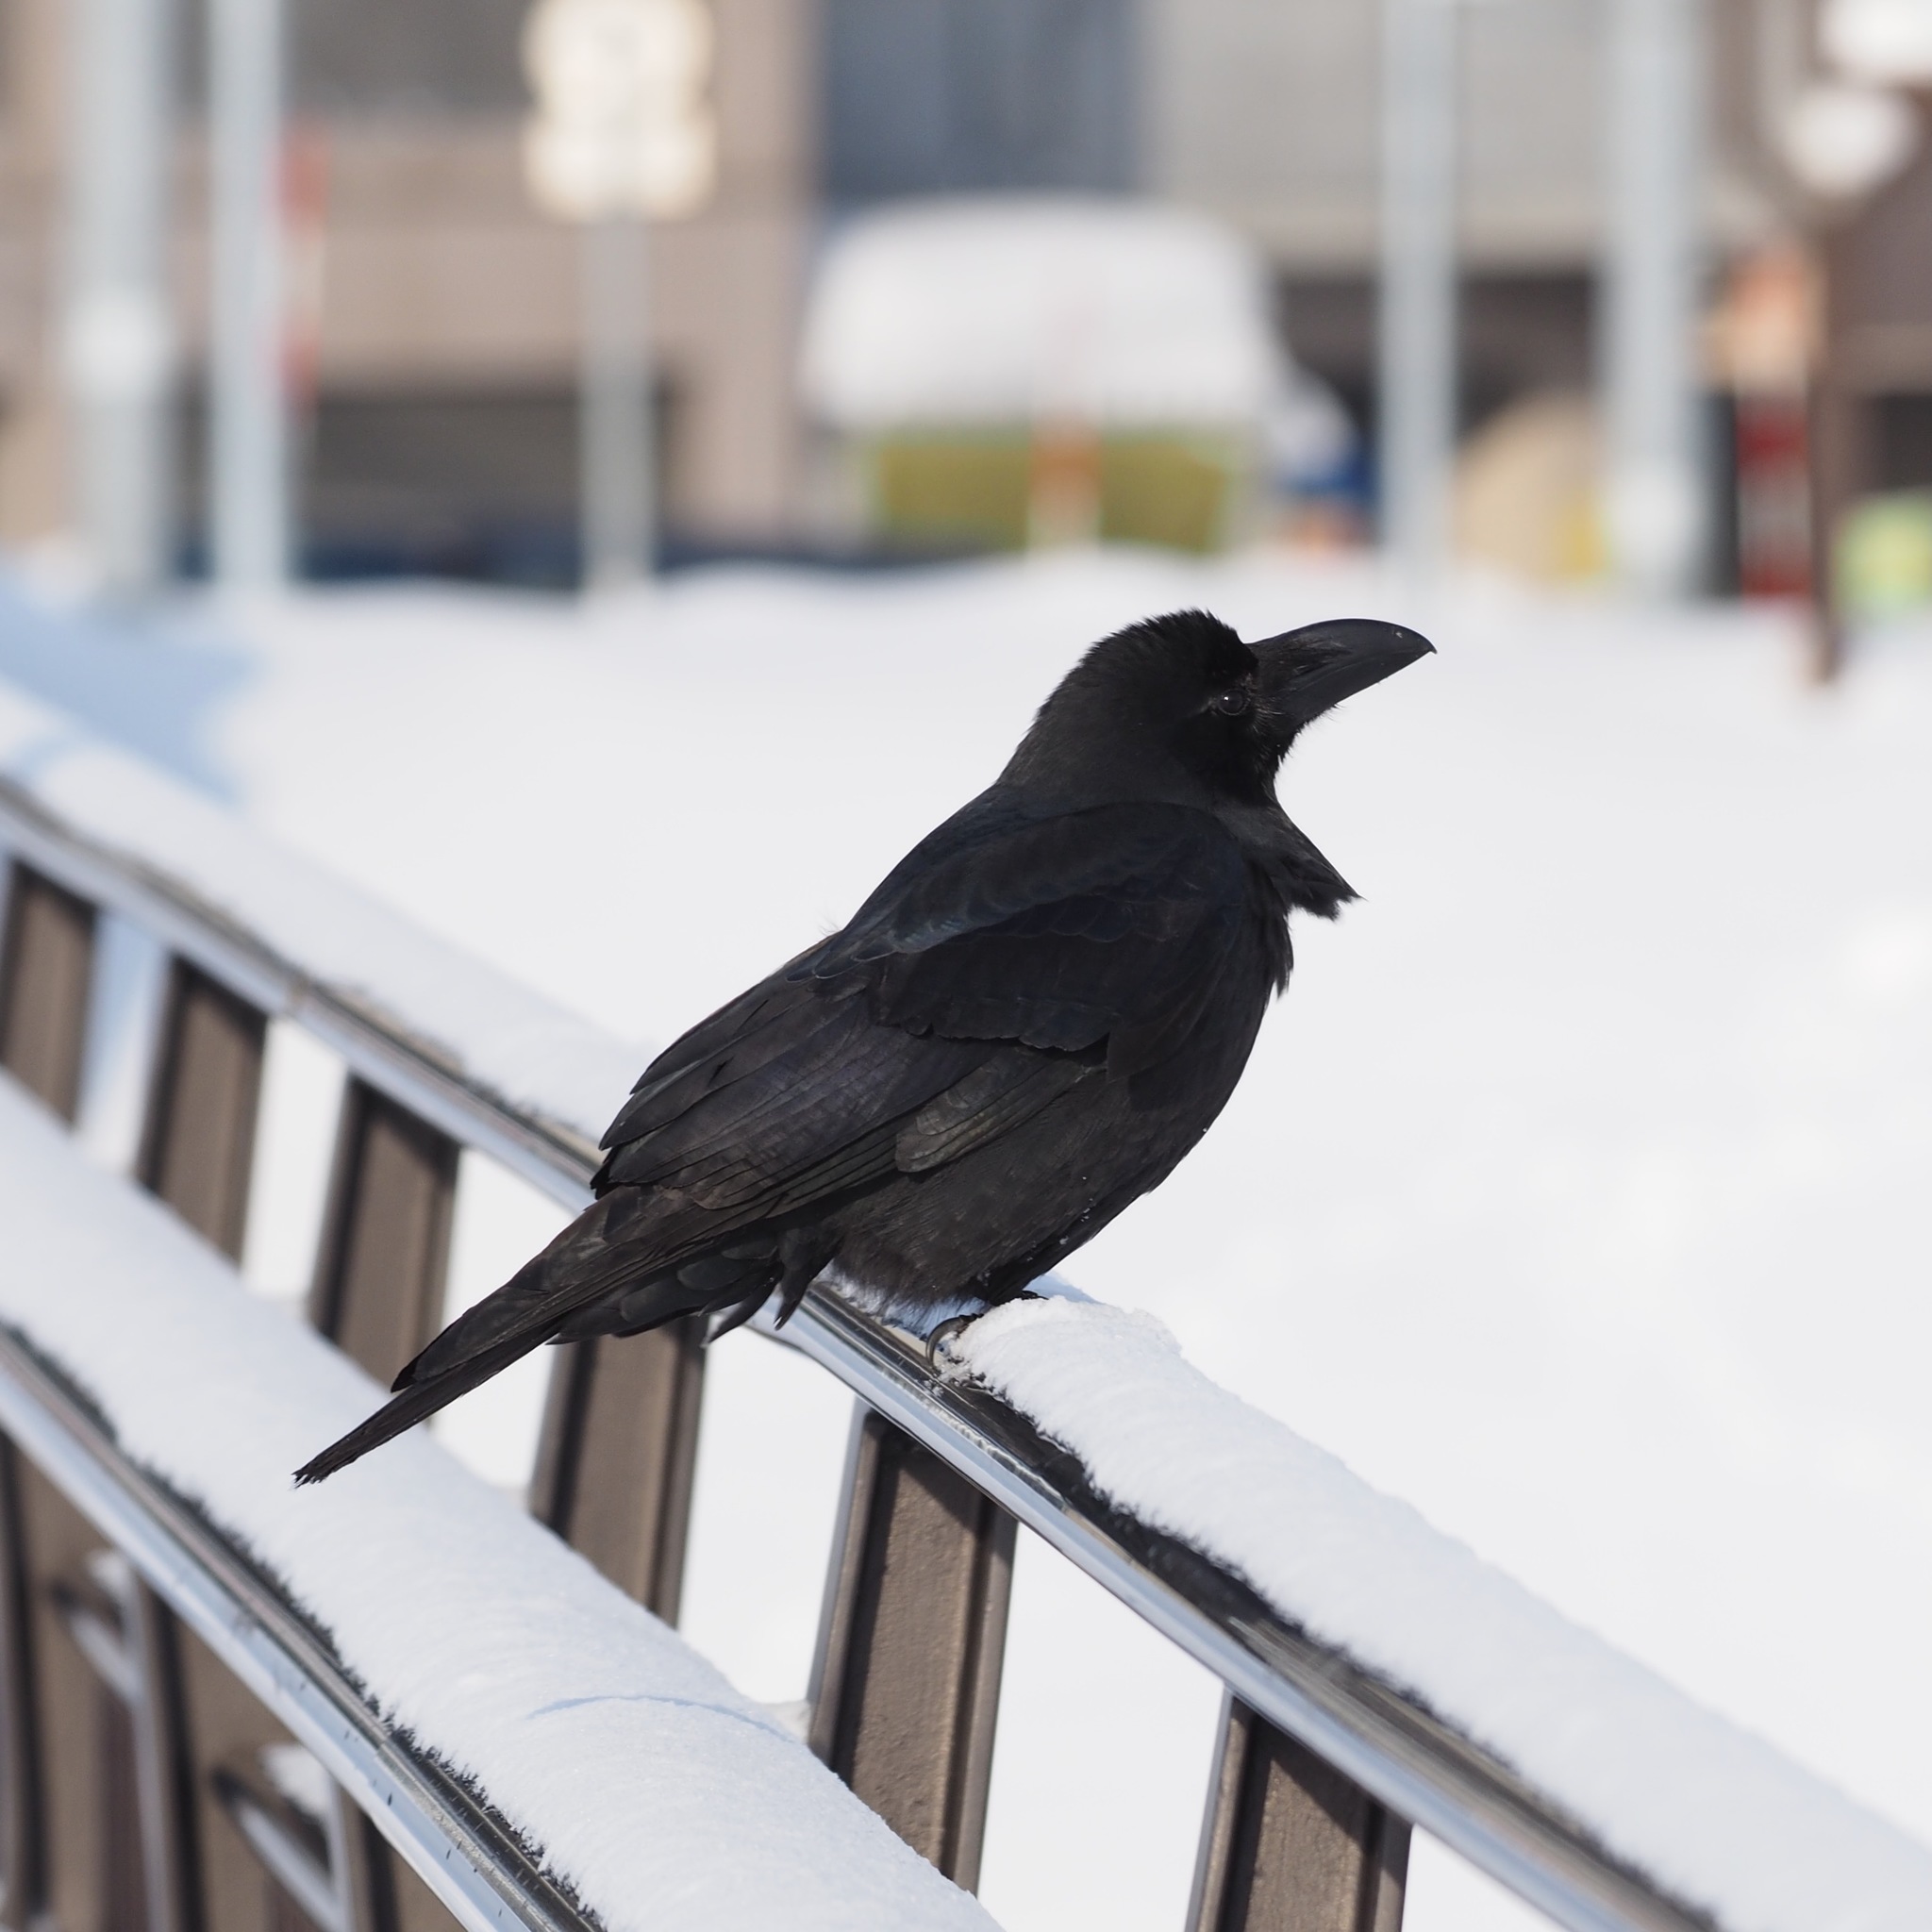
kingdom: Animalia
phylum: Chordata
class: Aves
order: Passeriformes
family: Corvidae
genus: Corvus
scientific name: Corvus macrorhynchos
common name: Large-billed crow
